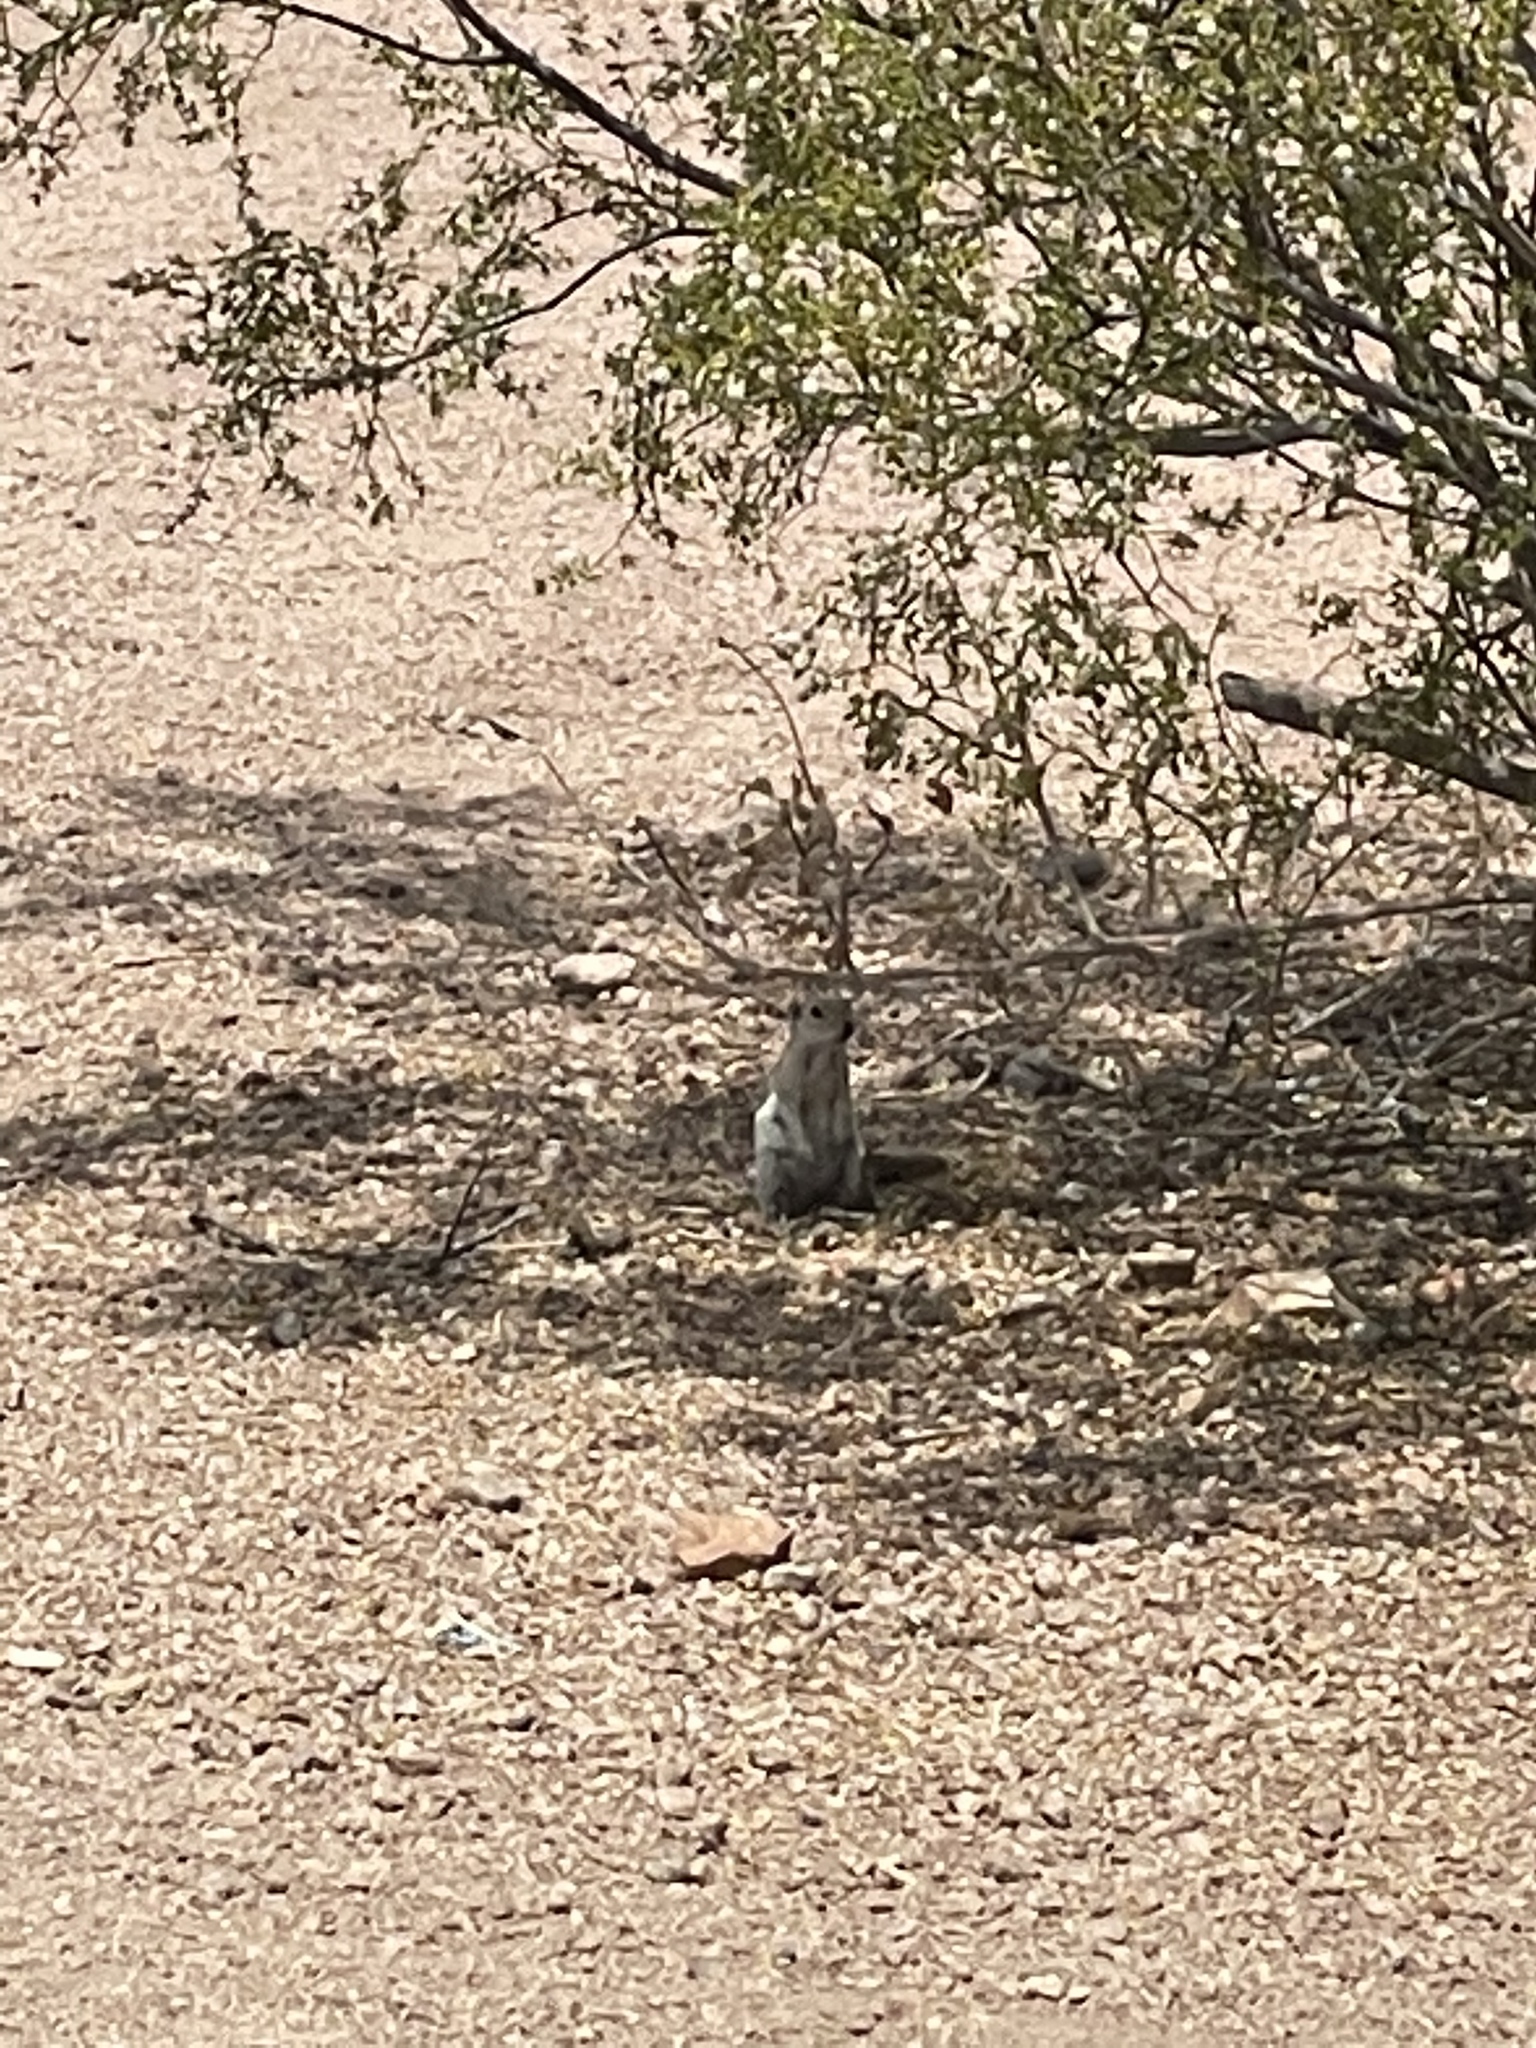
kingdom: Animalia
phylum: Chordata
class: Mammalia
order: Rodentia
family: Sciuridae
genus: Xerospermophilus
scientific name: Xerospermophilus tereticaudus
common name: Round-tailed ground squirrel
